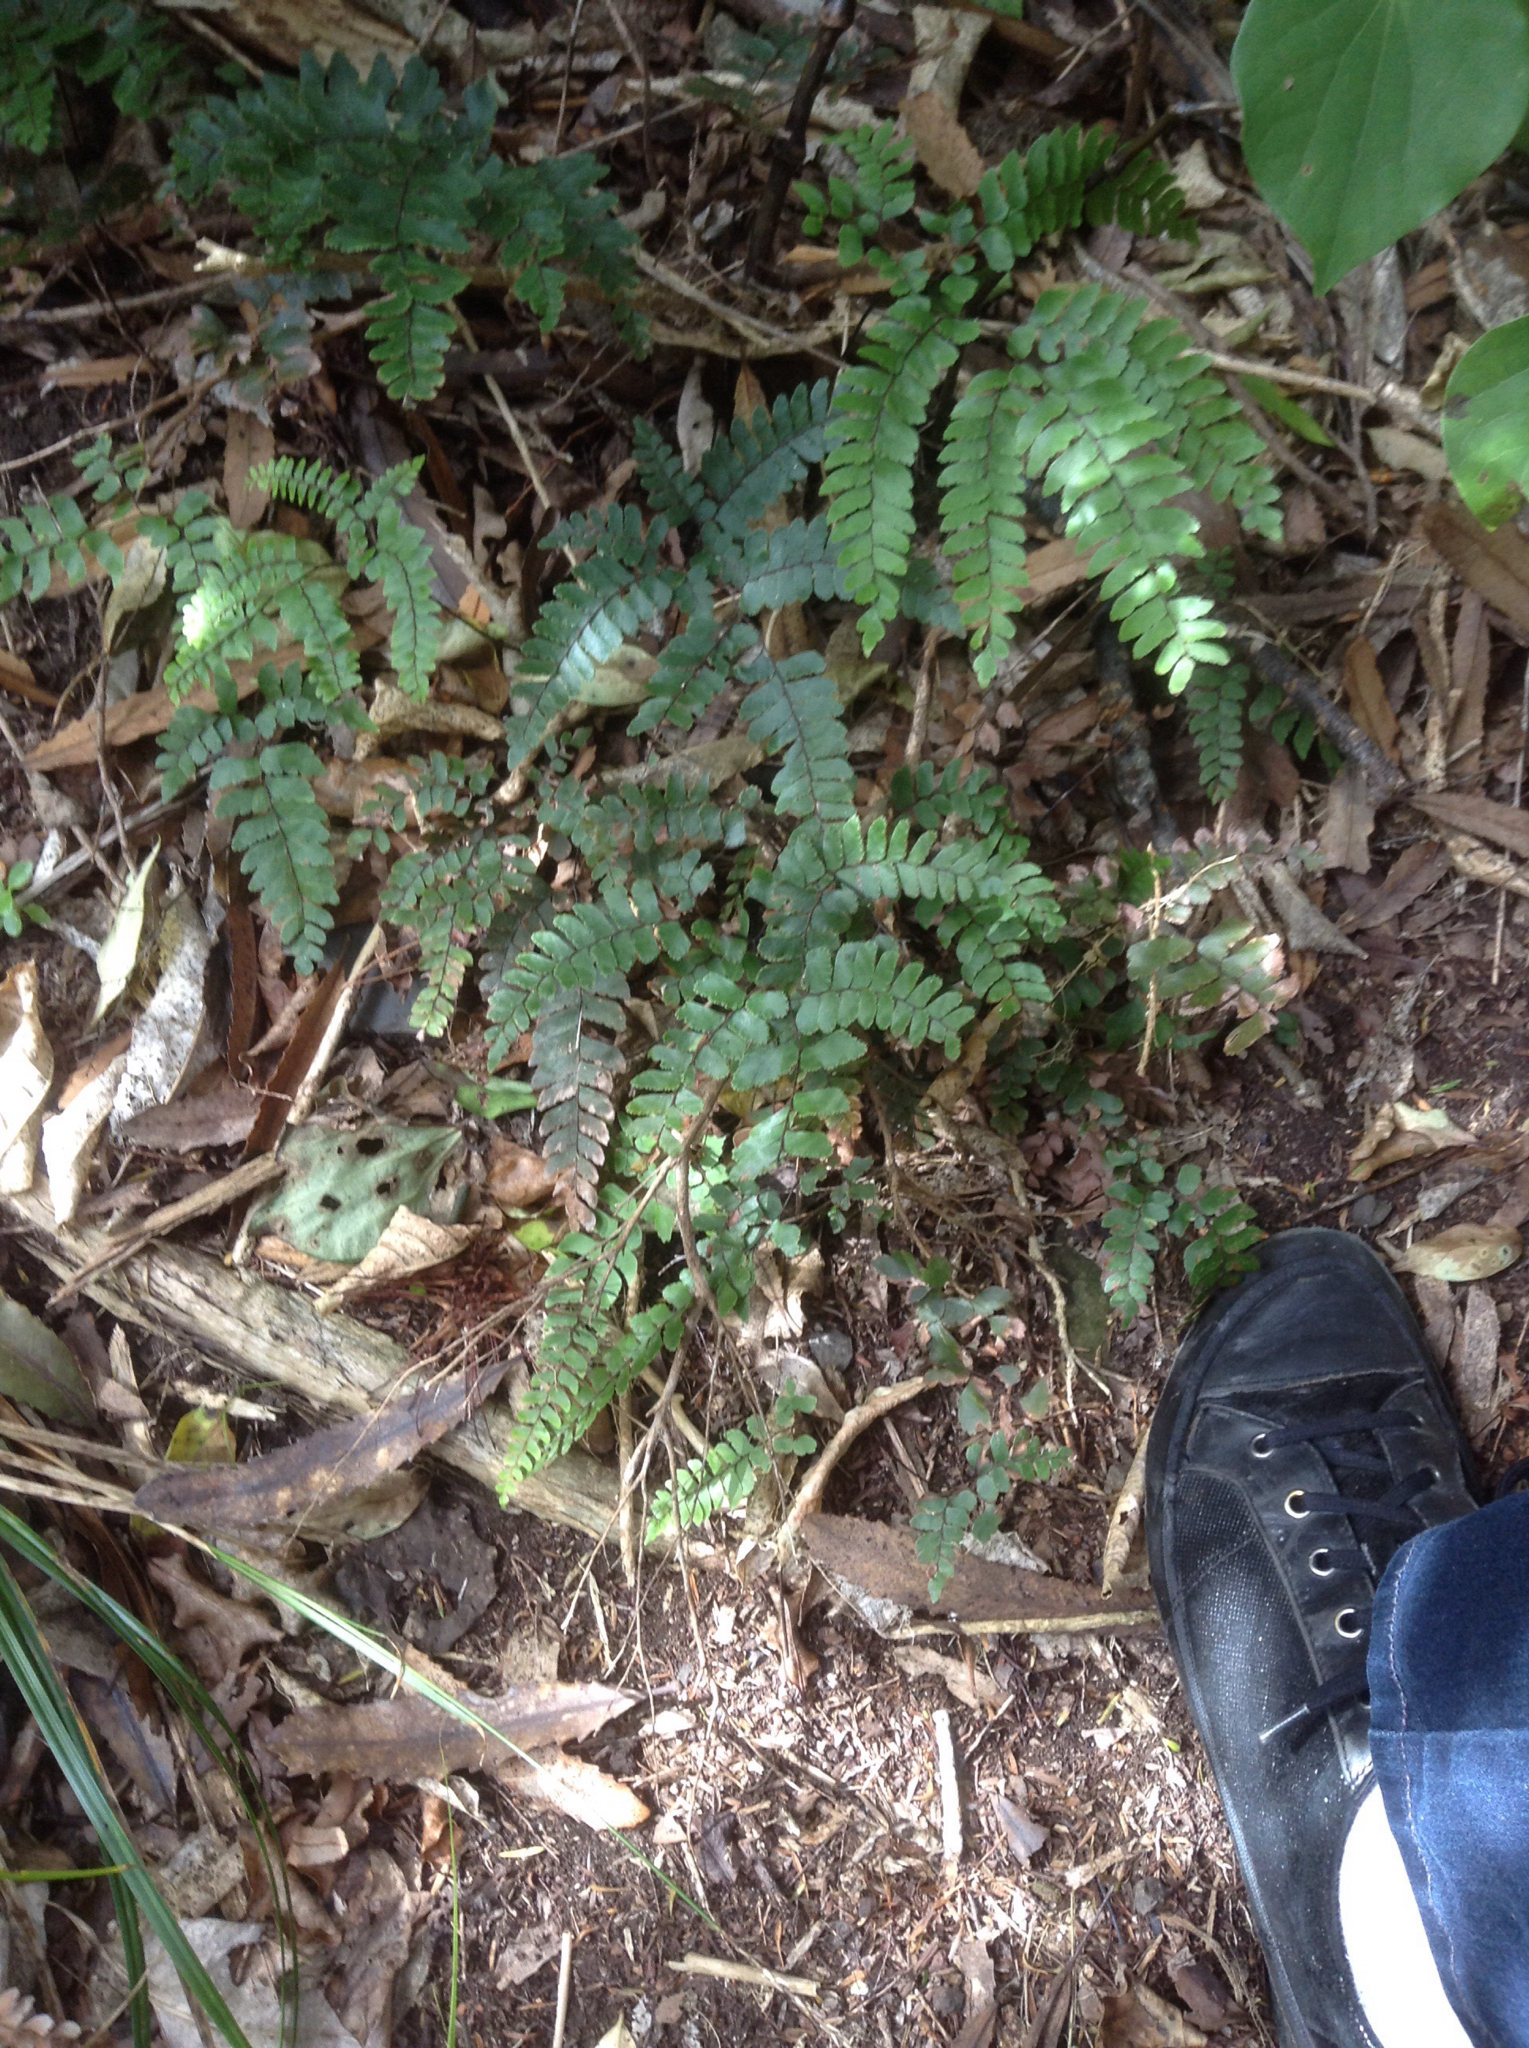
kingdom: Plantae
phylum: Tracheophyta
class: Polypodiopsida
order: Polypodiales
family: Pteridaceae
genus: Adiantum
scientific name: Adiantum cunninghamii
